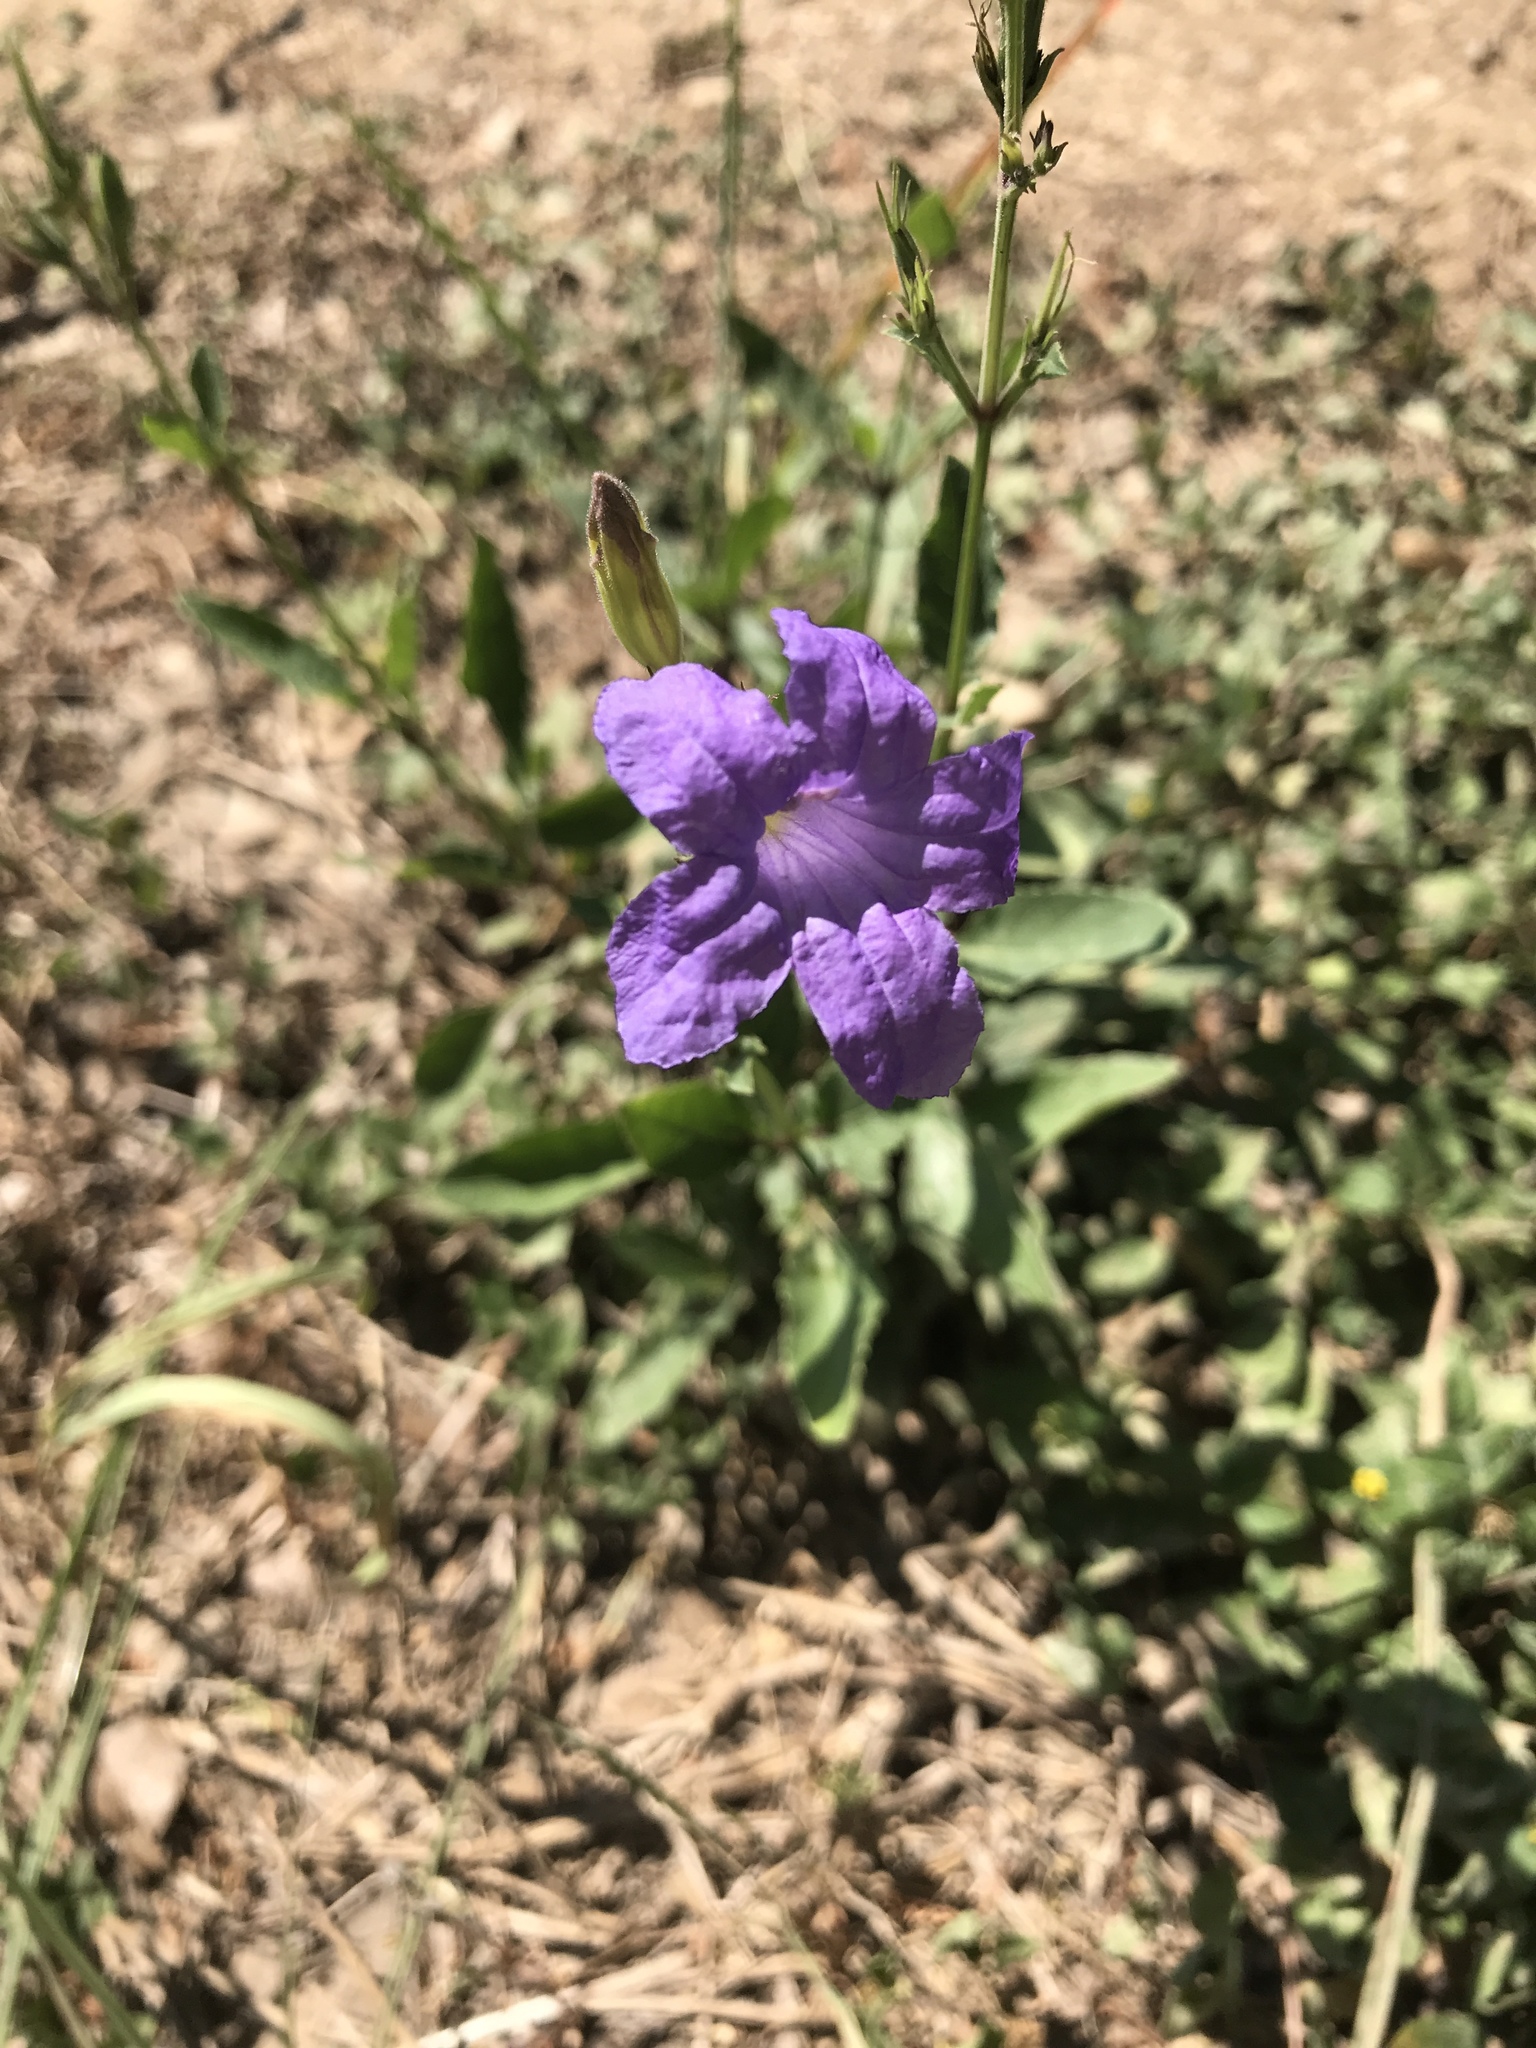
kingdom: Plantae
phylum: Tracheophyta
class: Magnoliopsida
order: Lamiales
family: Acanthaceae
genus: Ruellia
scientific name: Ruellia ciliatiflora
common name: Hairyflower wild petunia
